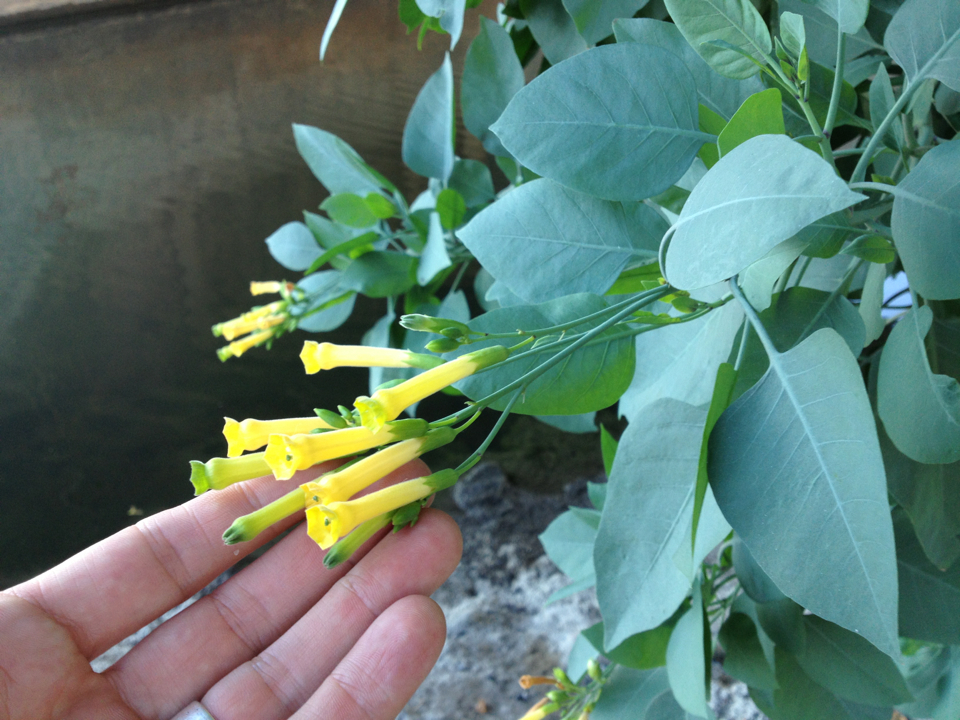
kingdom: Plantae
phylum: Tracheophyta
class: Magnoliopsida
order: Solanales
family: Solanaceae
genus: Nicotiana
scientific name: Nicotiana glauca
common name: Tree tobacco
